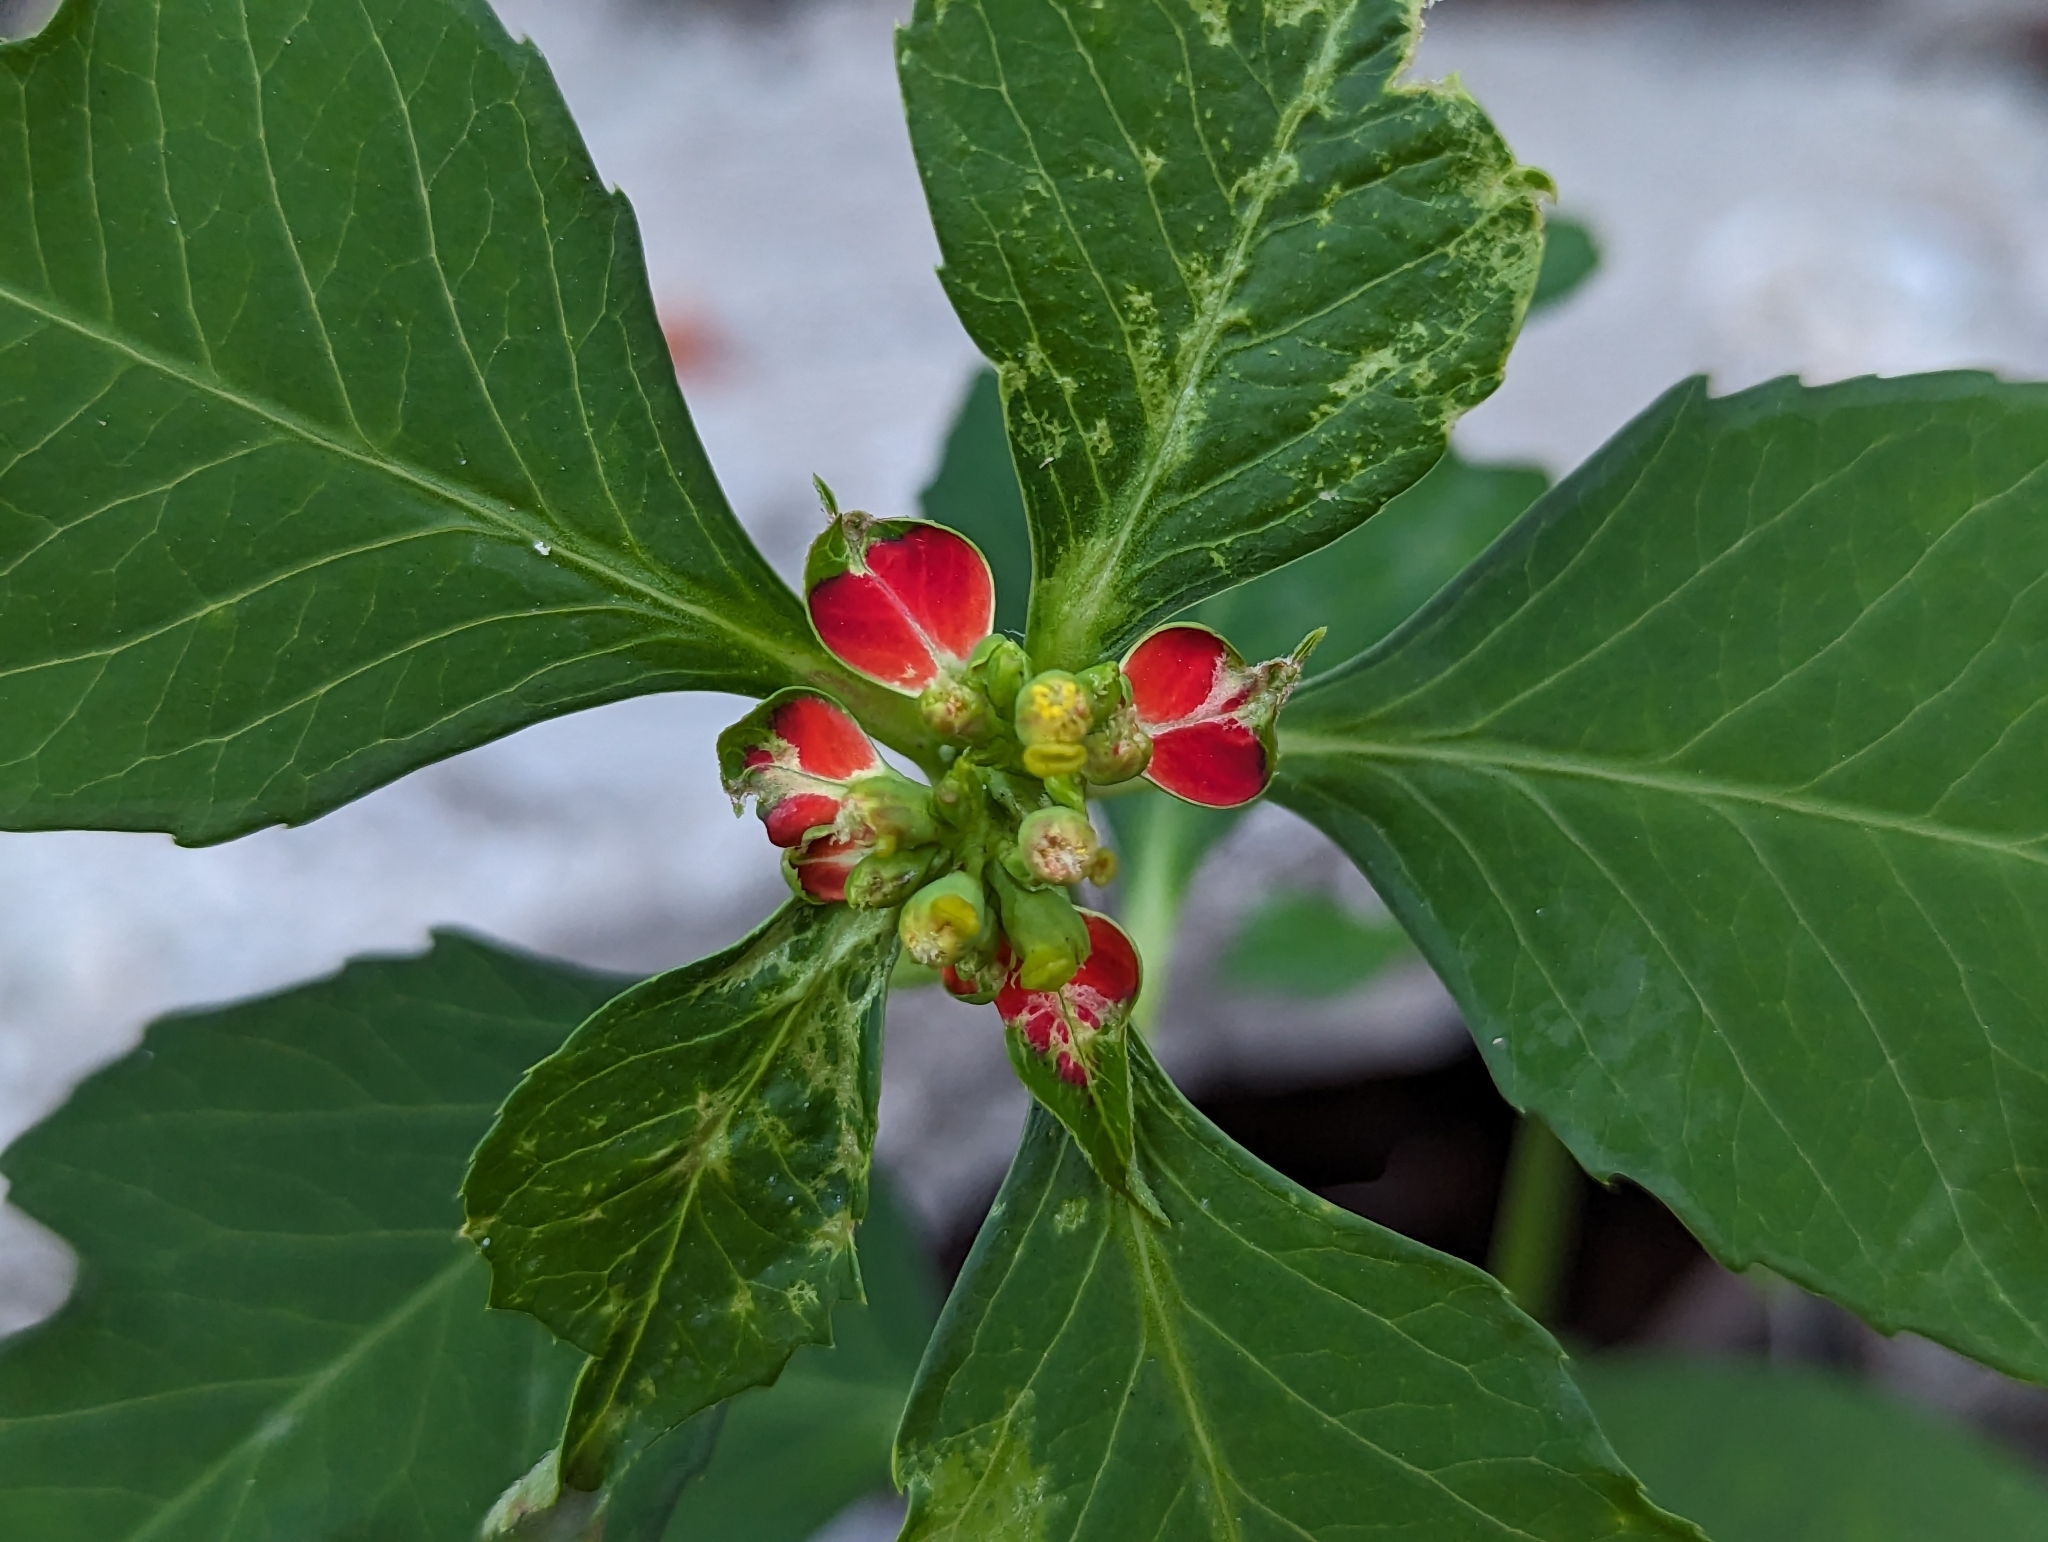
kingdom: Plantae
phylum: Tracheophyta
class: Magnoliopsida
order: Malpighiales
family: Euphorbiaceae
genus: Euphorbia
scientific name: Euphorbia heterophylla
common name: Mexican fireplant
